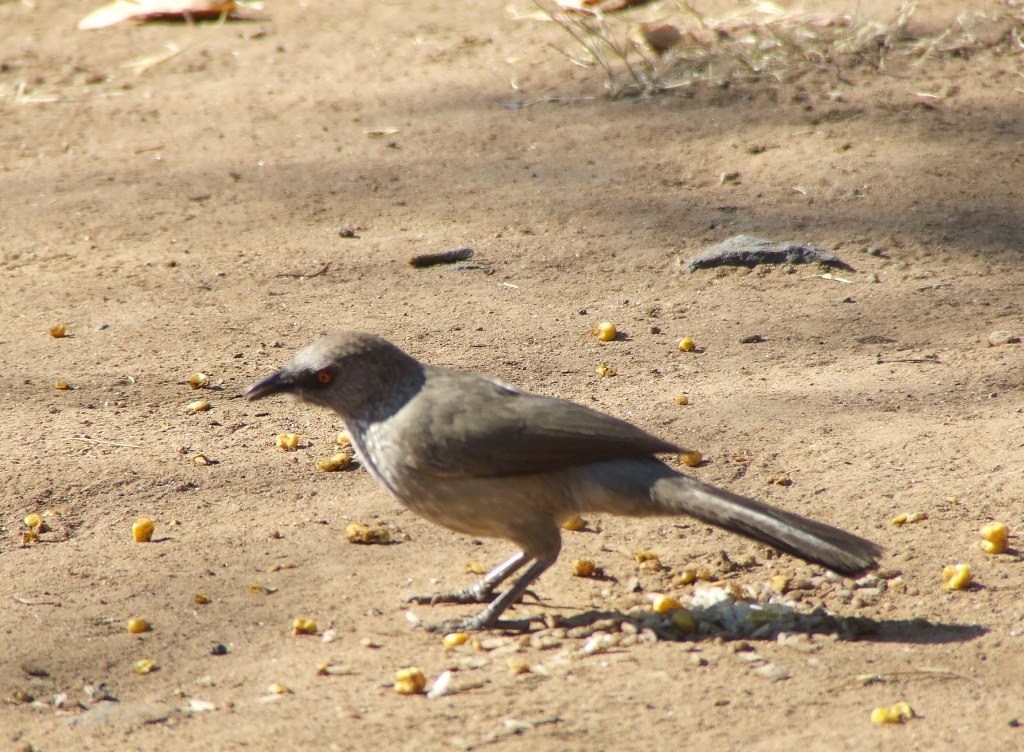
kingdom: Animalia
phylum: Chordata
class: Aves
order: Passeriformes
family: Leiothrichidae
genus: Turdoides
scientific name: Turdoides jardineii
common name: Arrow-marked babbler
